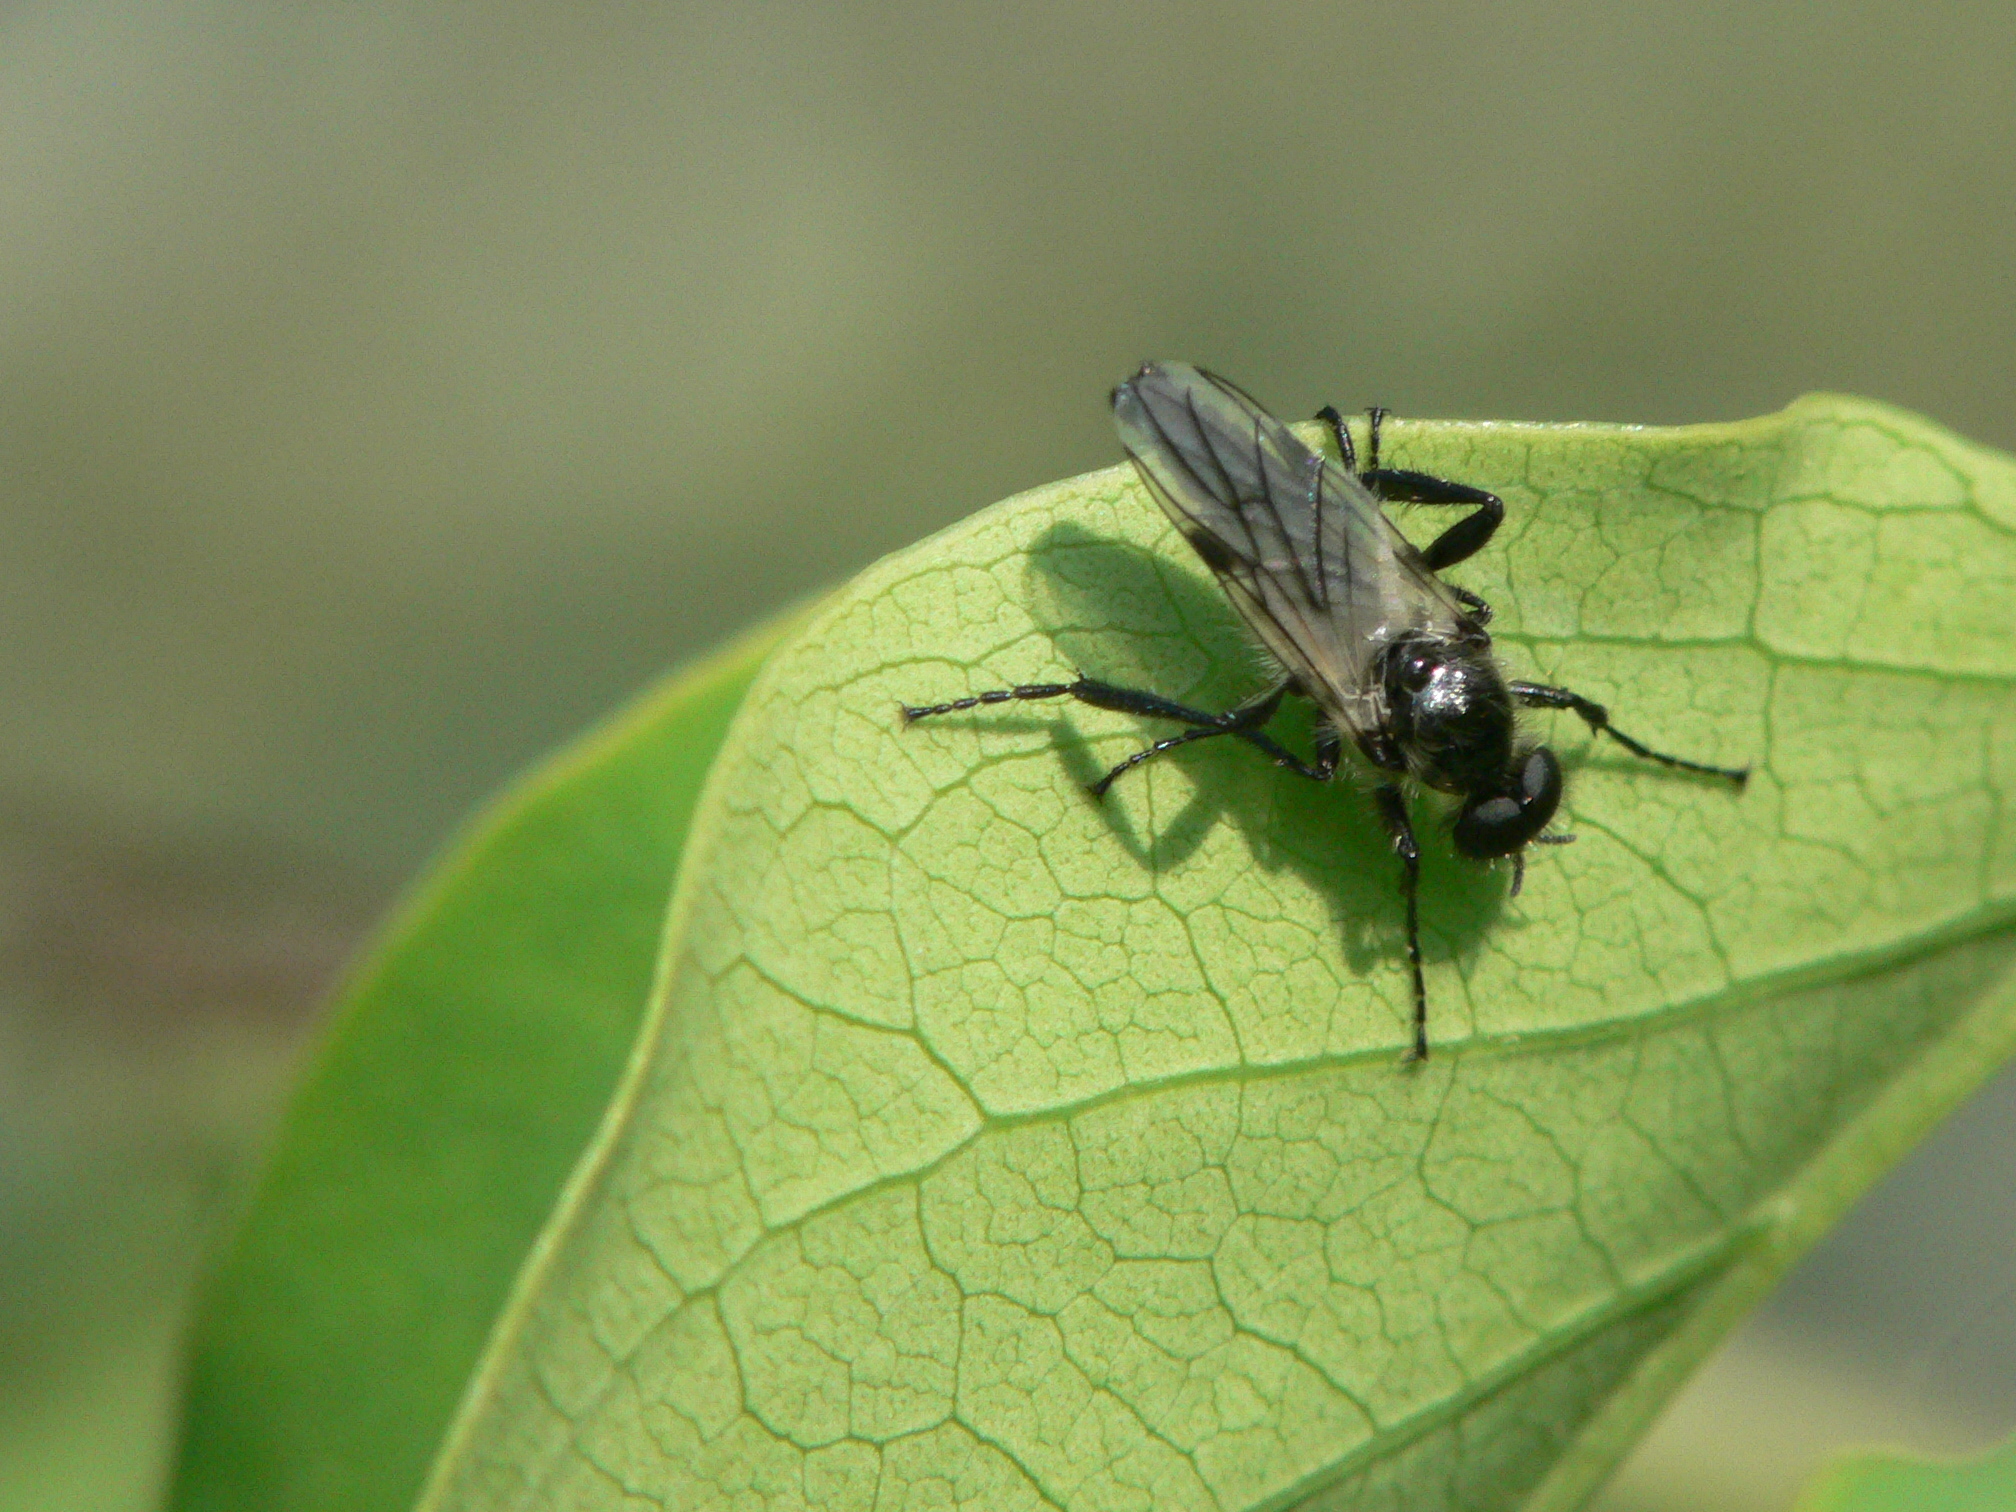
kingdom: Animalia
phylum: Arthropoda
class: Insecta
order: Diptera
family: Bibionidae
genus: Bibio
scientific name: Bibio albipennis
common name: White-winged march fly
